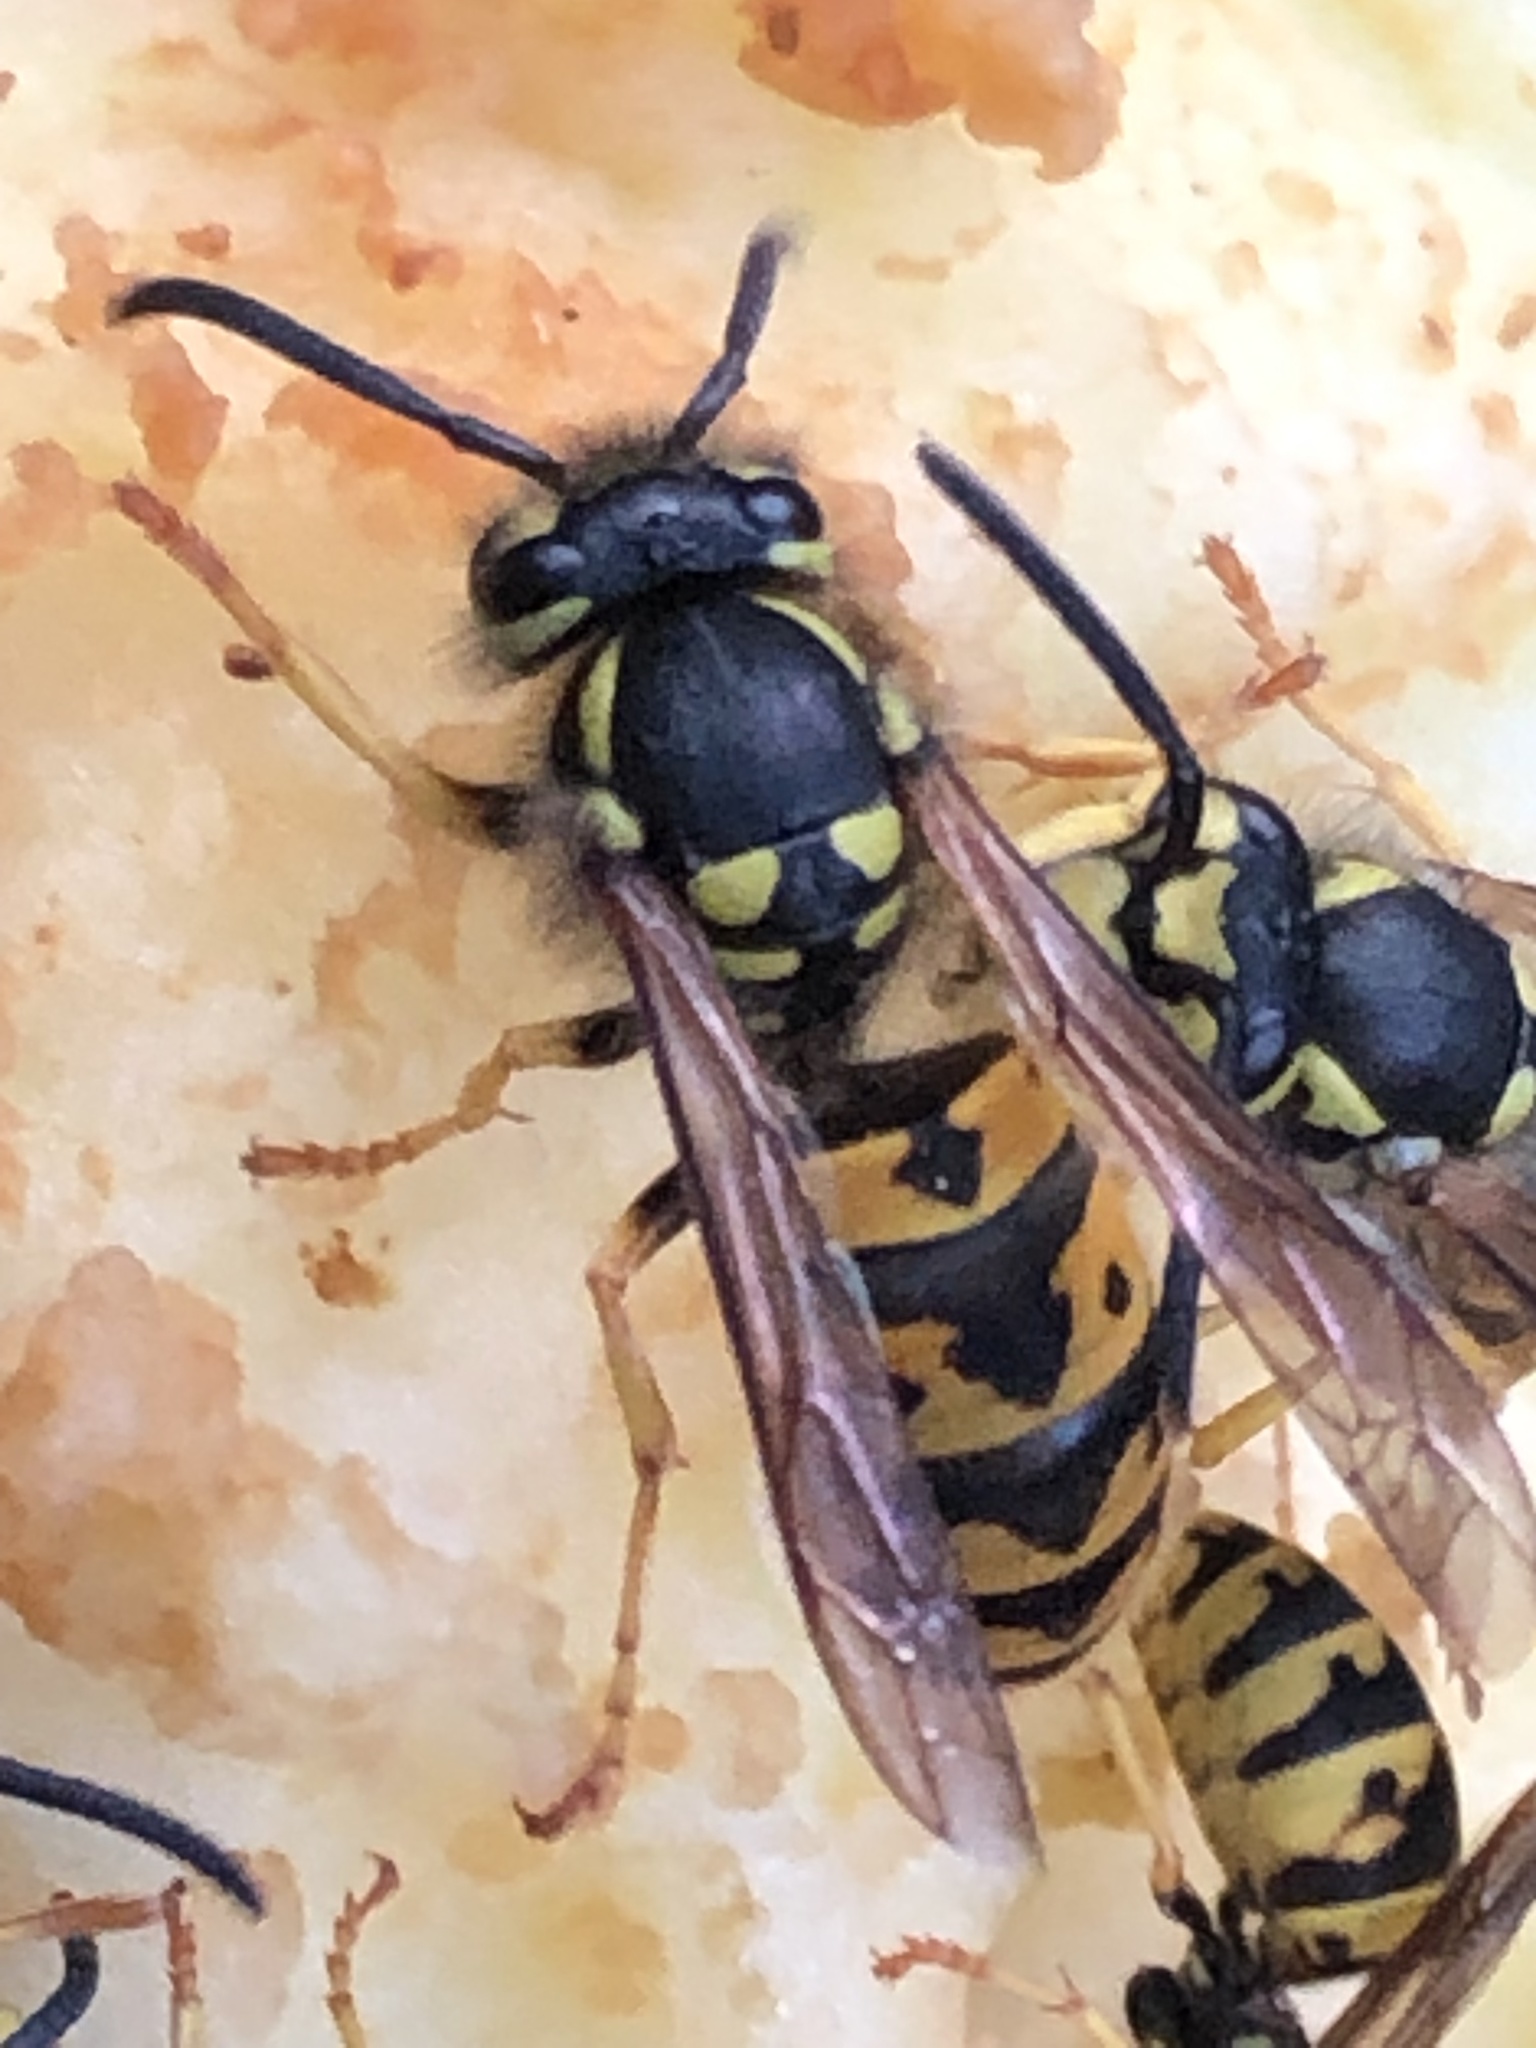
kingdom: Animalia
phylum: Arthropoda
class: Insecta
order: Hymenoptera
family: Vespidae
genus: Vespula
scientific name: Vespula germanica
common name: German wasp
